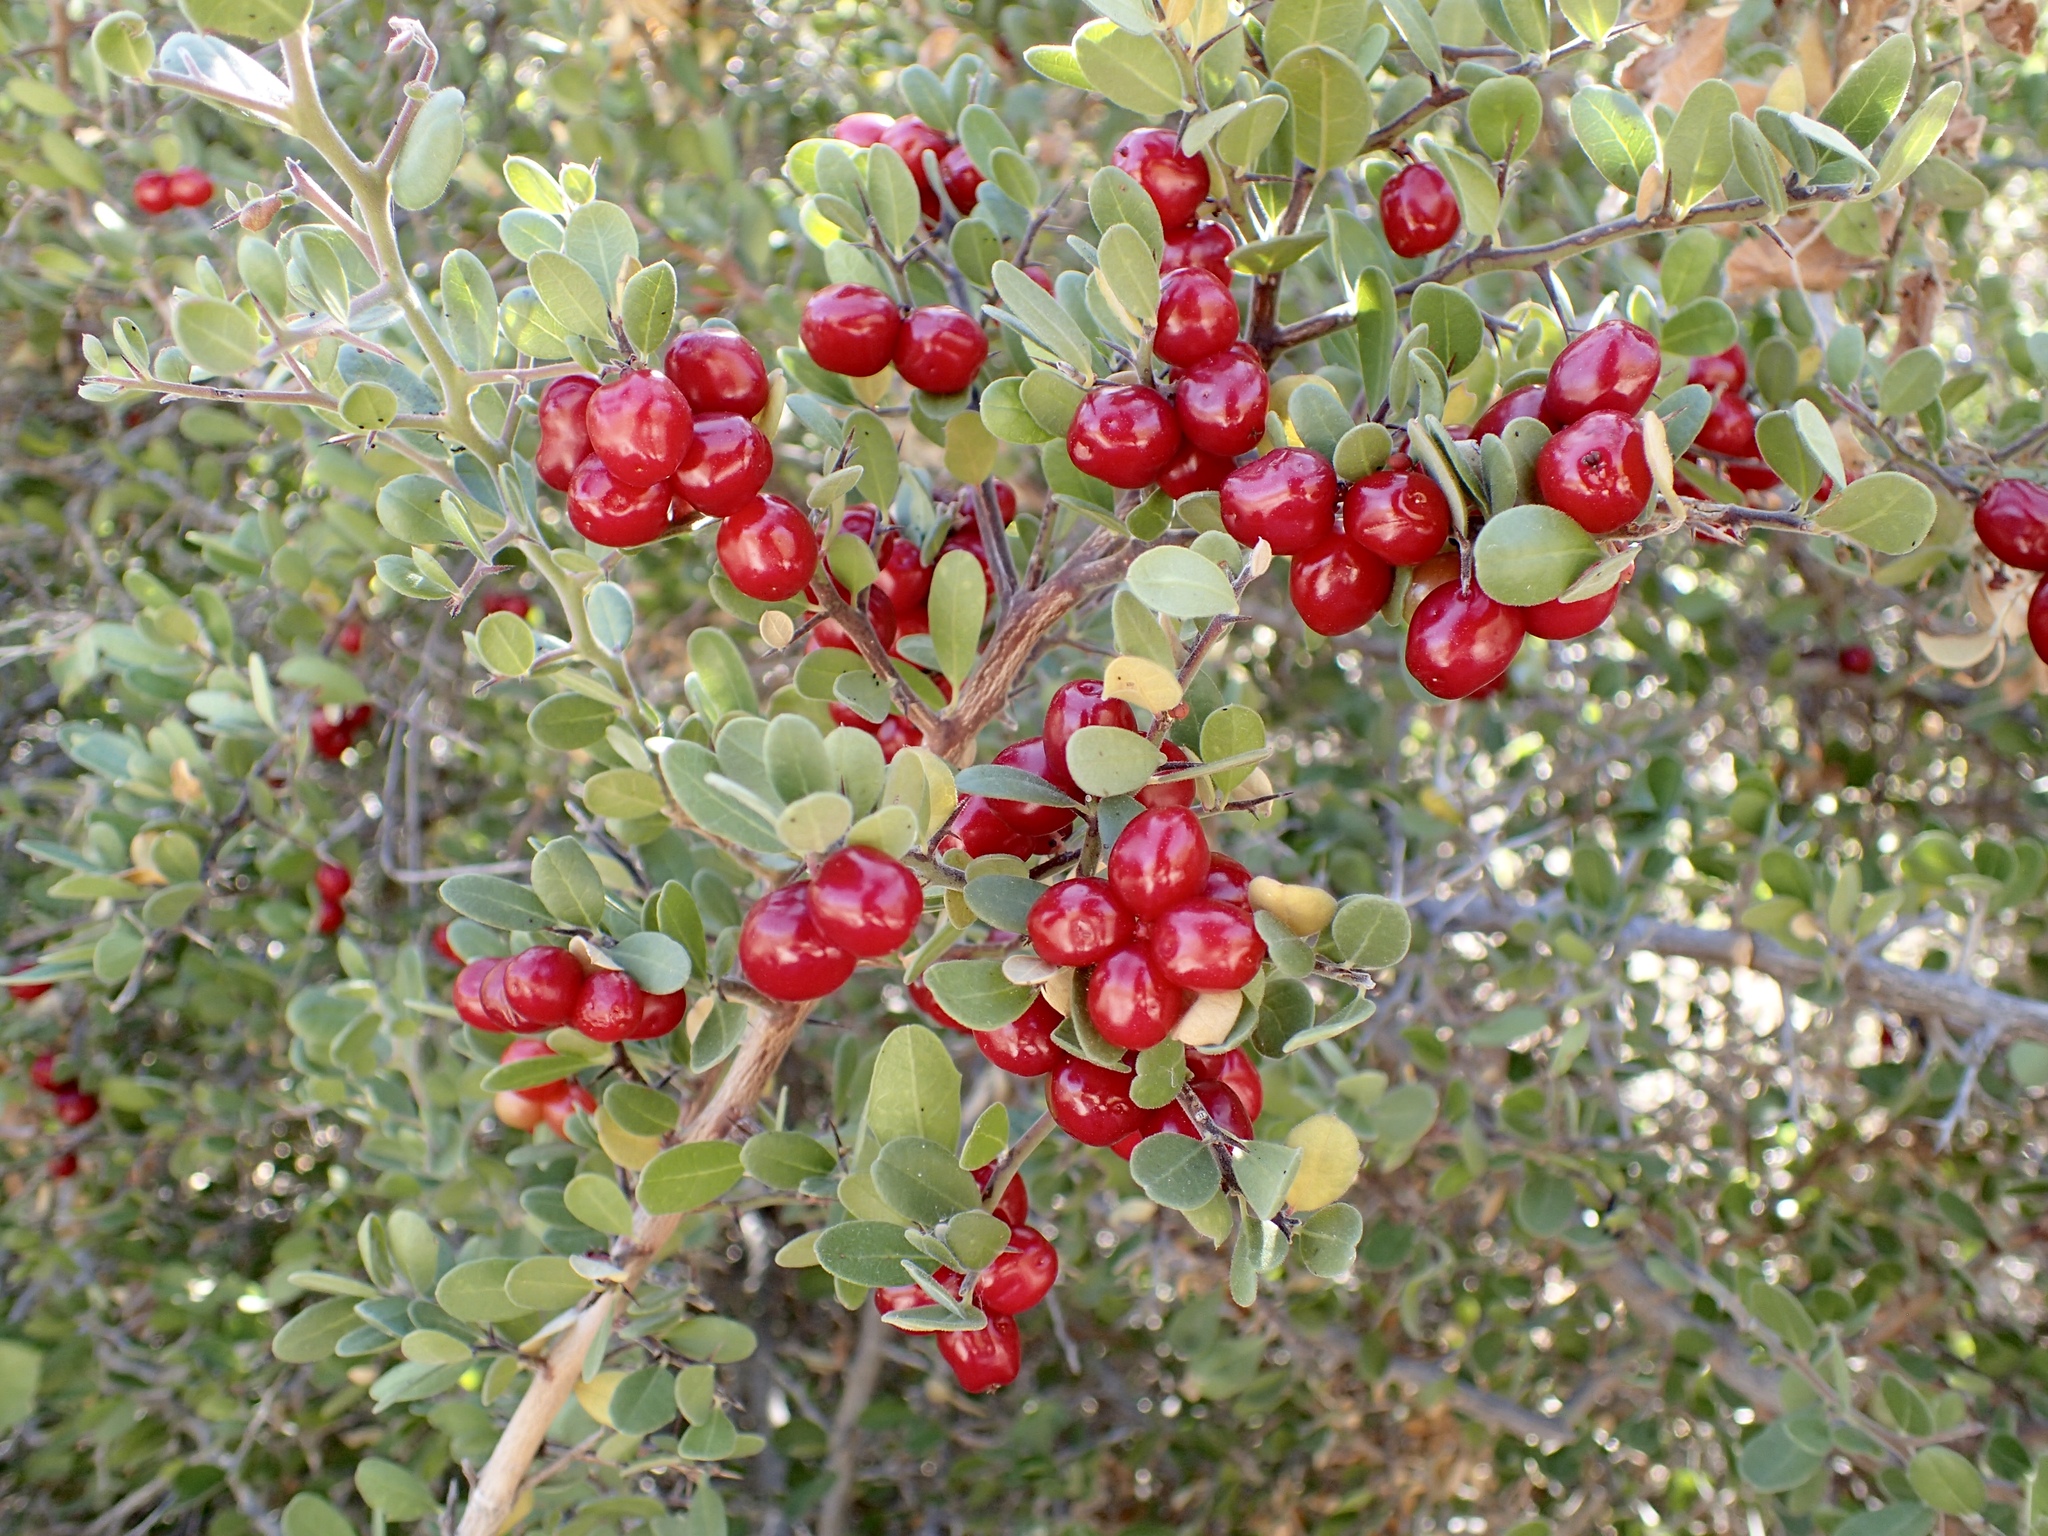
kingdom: Plantae
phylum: Tracheophyta
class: Magnoliopsida
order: Sapindales
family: Simaroubaceae
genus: Castela
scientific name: Castela peninsularis
